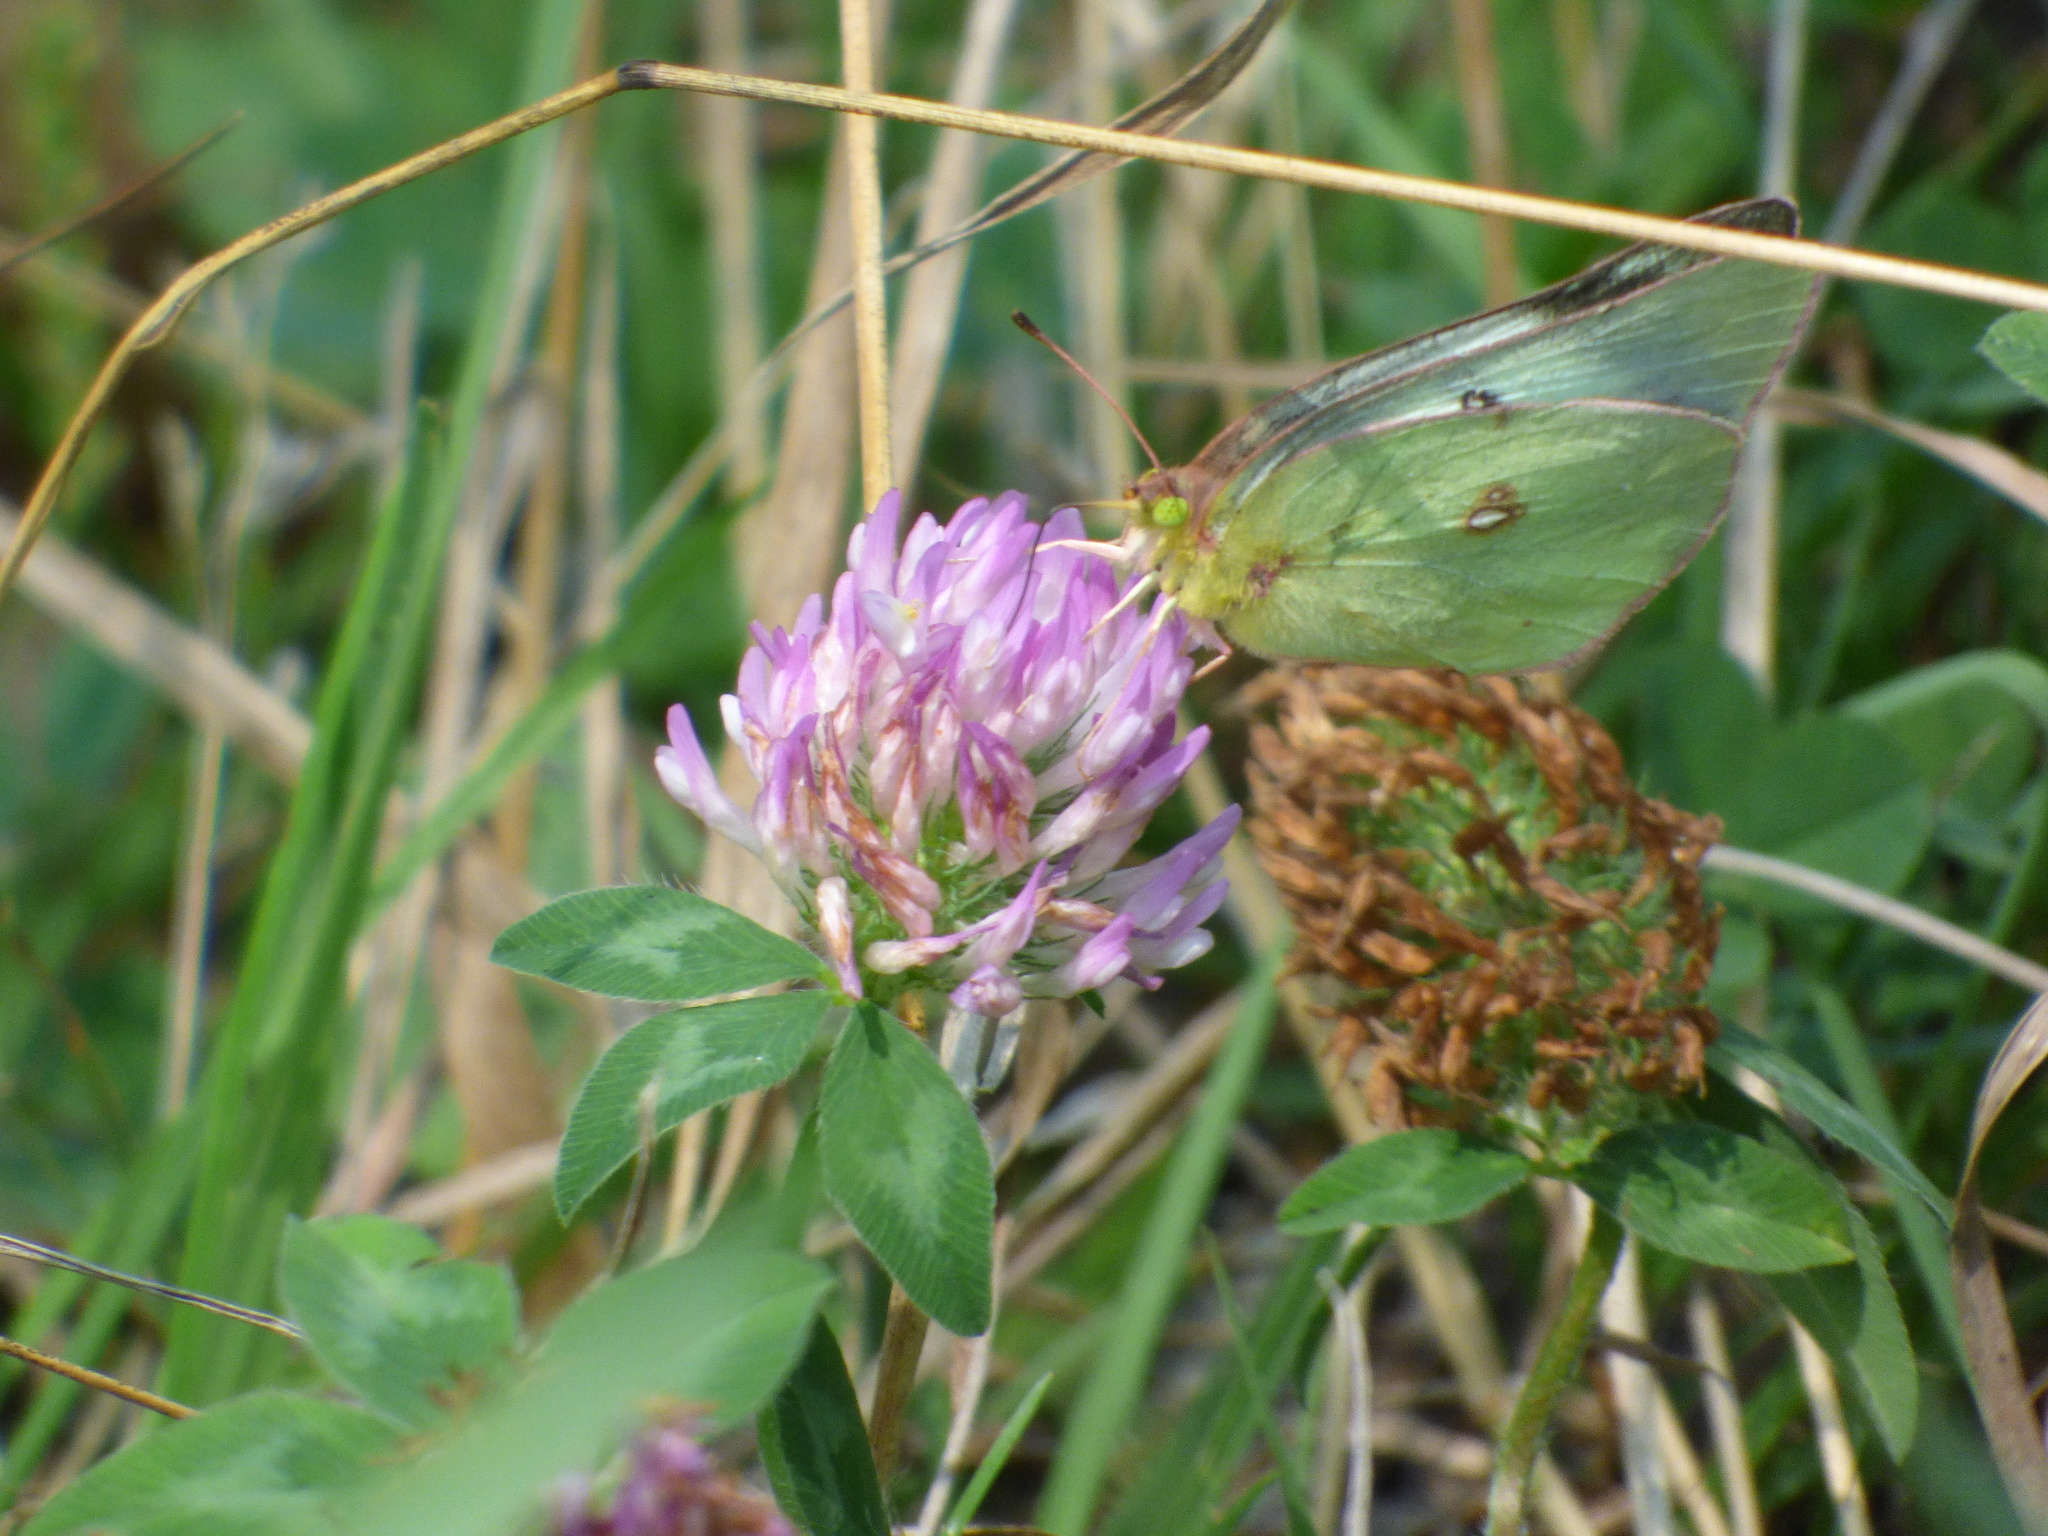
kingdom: Animalia
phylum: Arthropoda
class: Insecta
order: Lepidoptera
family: Pieridae
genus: Colias
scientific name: Colias philodice
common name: Clouded sulphur
